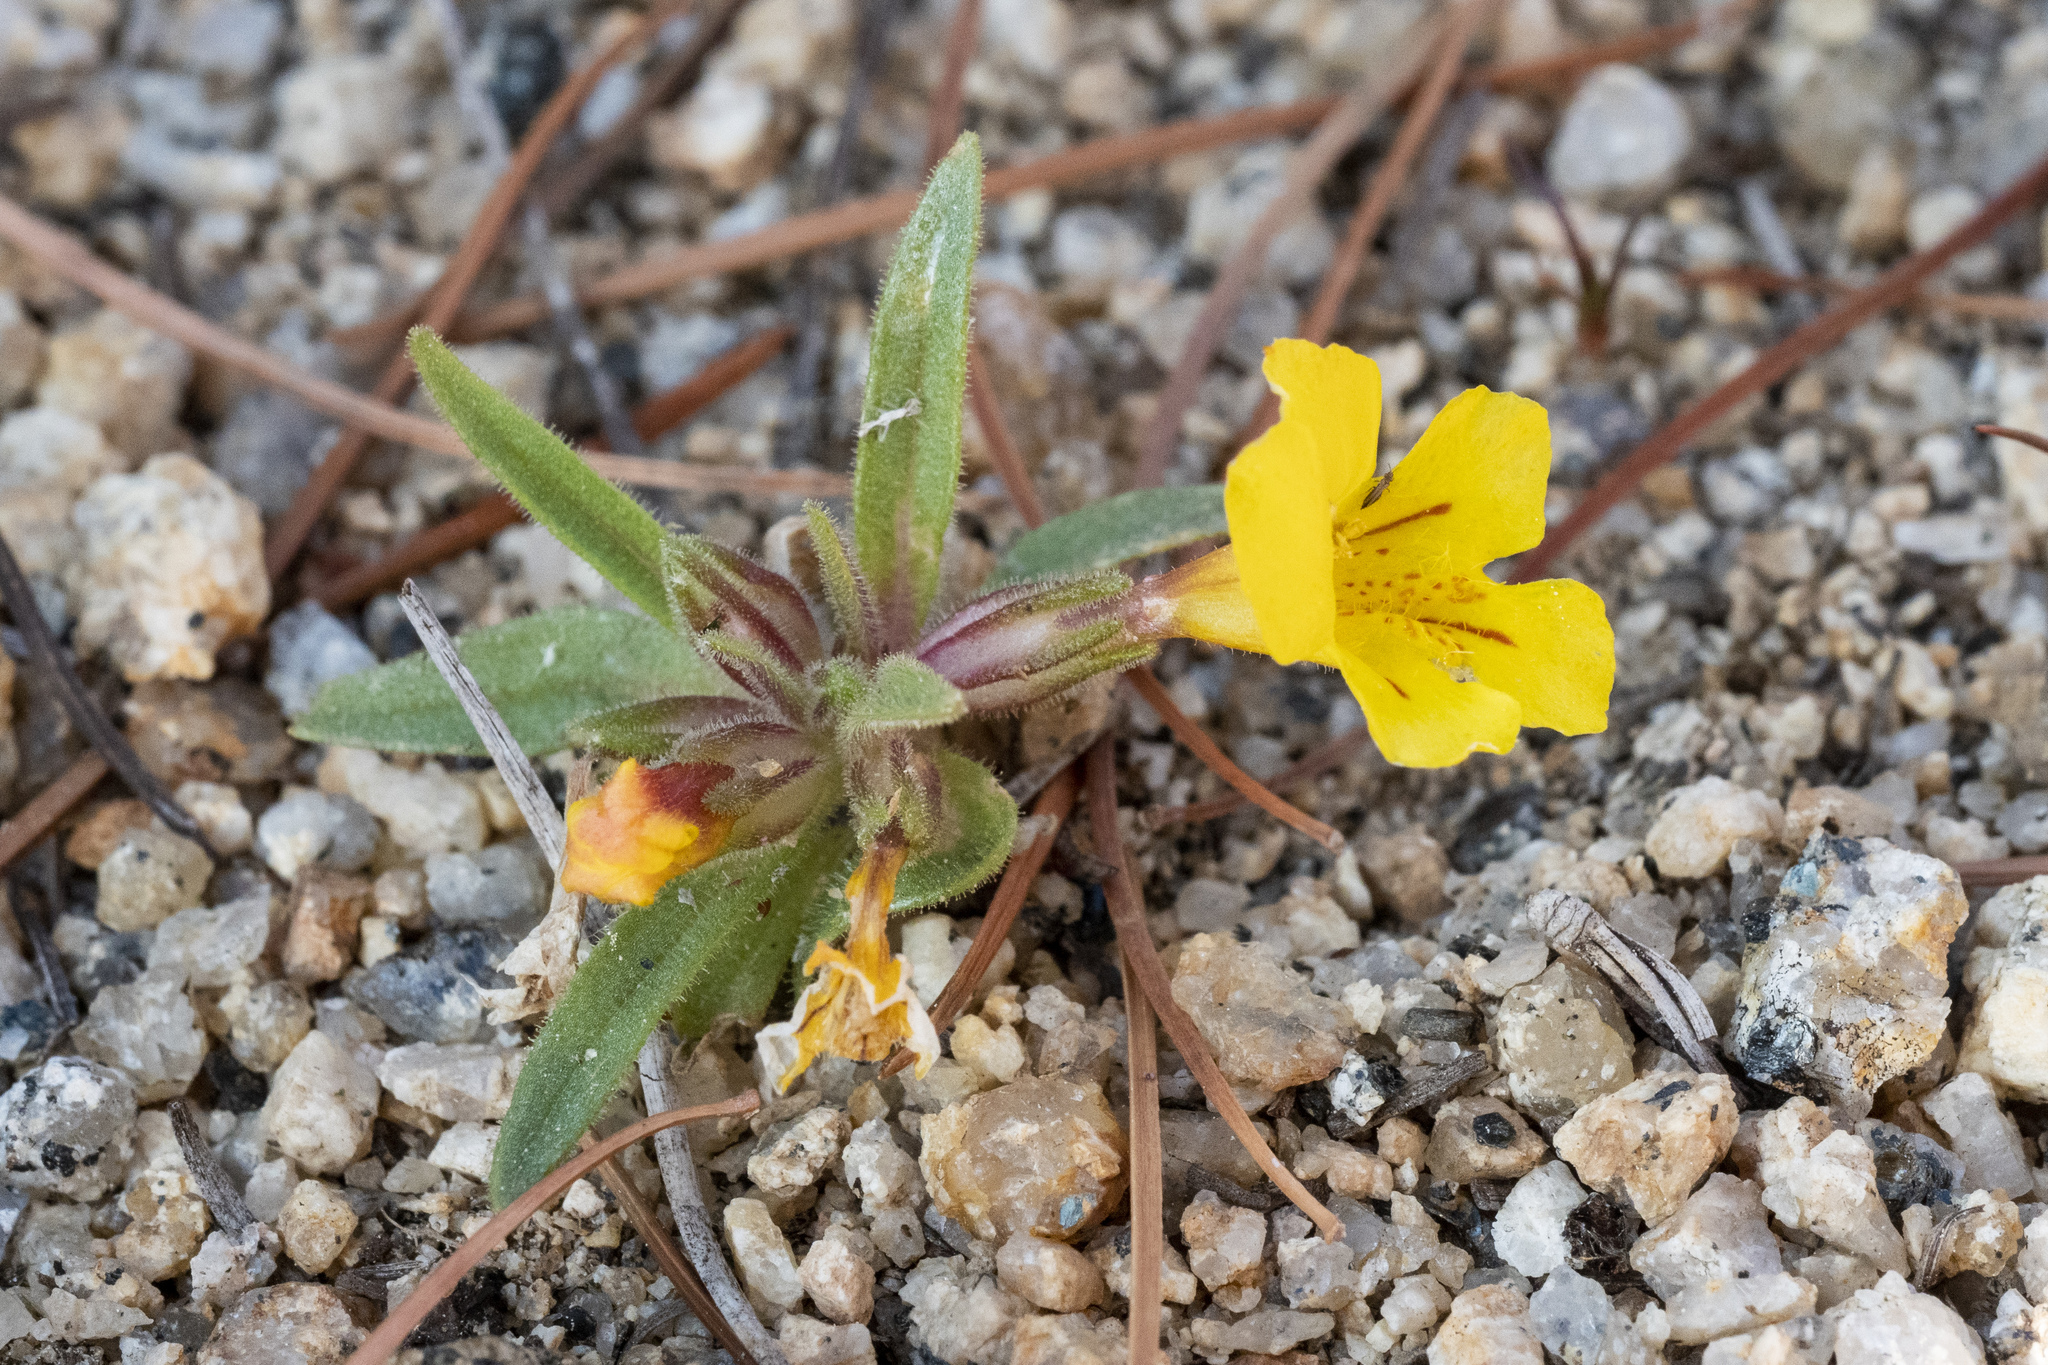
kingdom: Plantae
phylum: Tracheophyta
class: Magnoliopsida
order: Lamiales
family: Phrymaceae
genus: Diplacus
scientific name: Diplacus mephiticus
